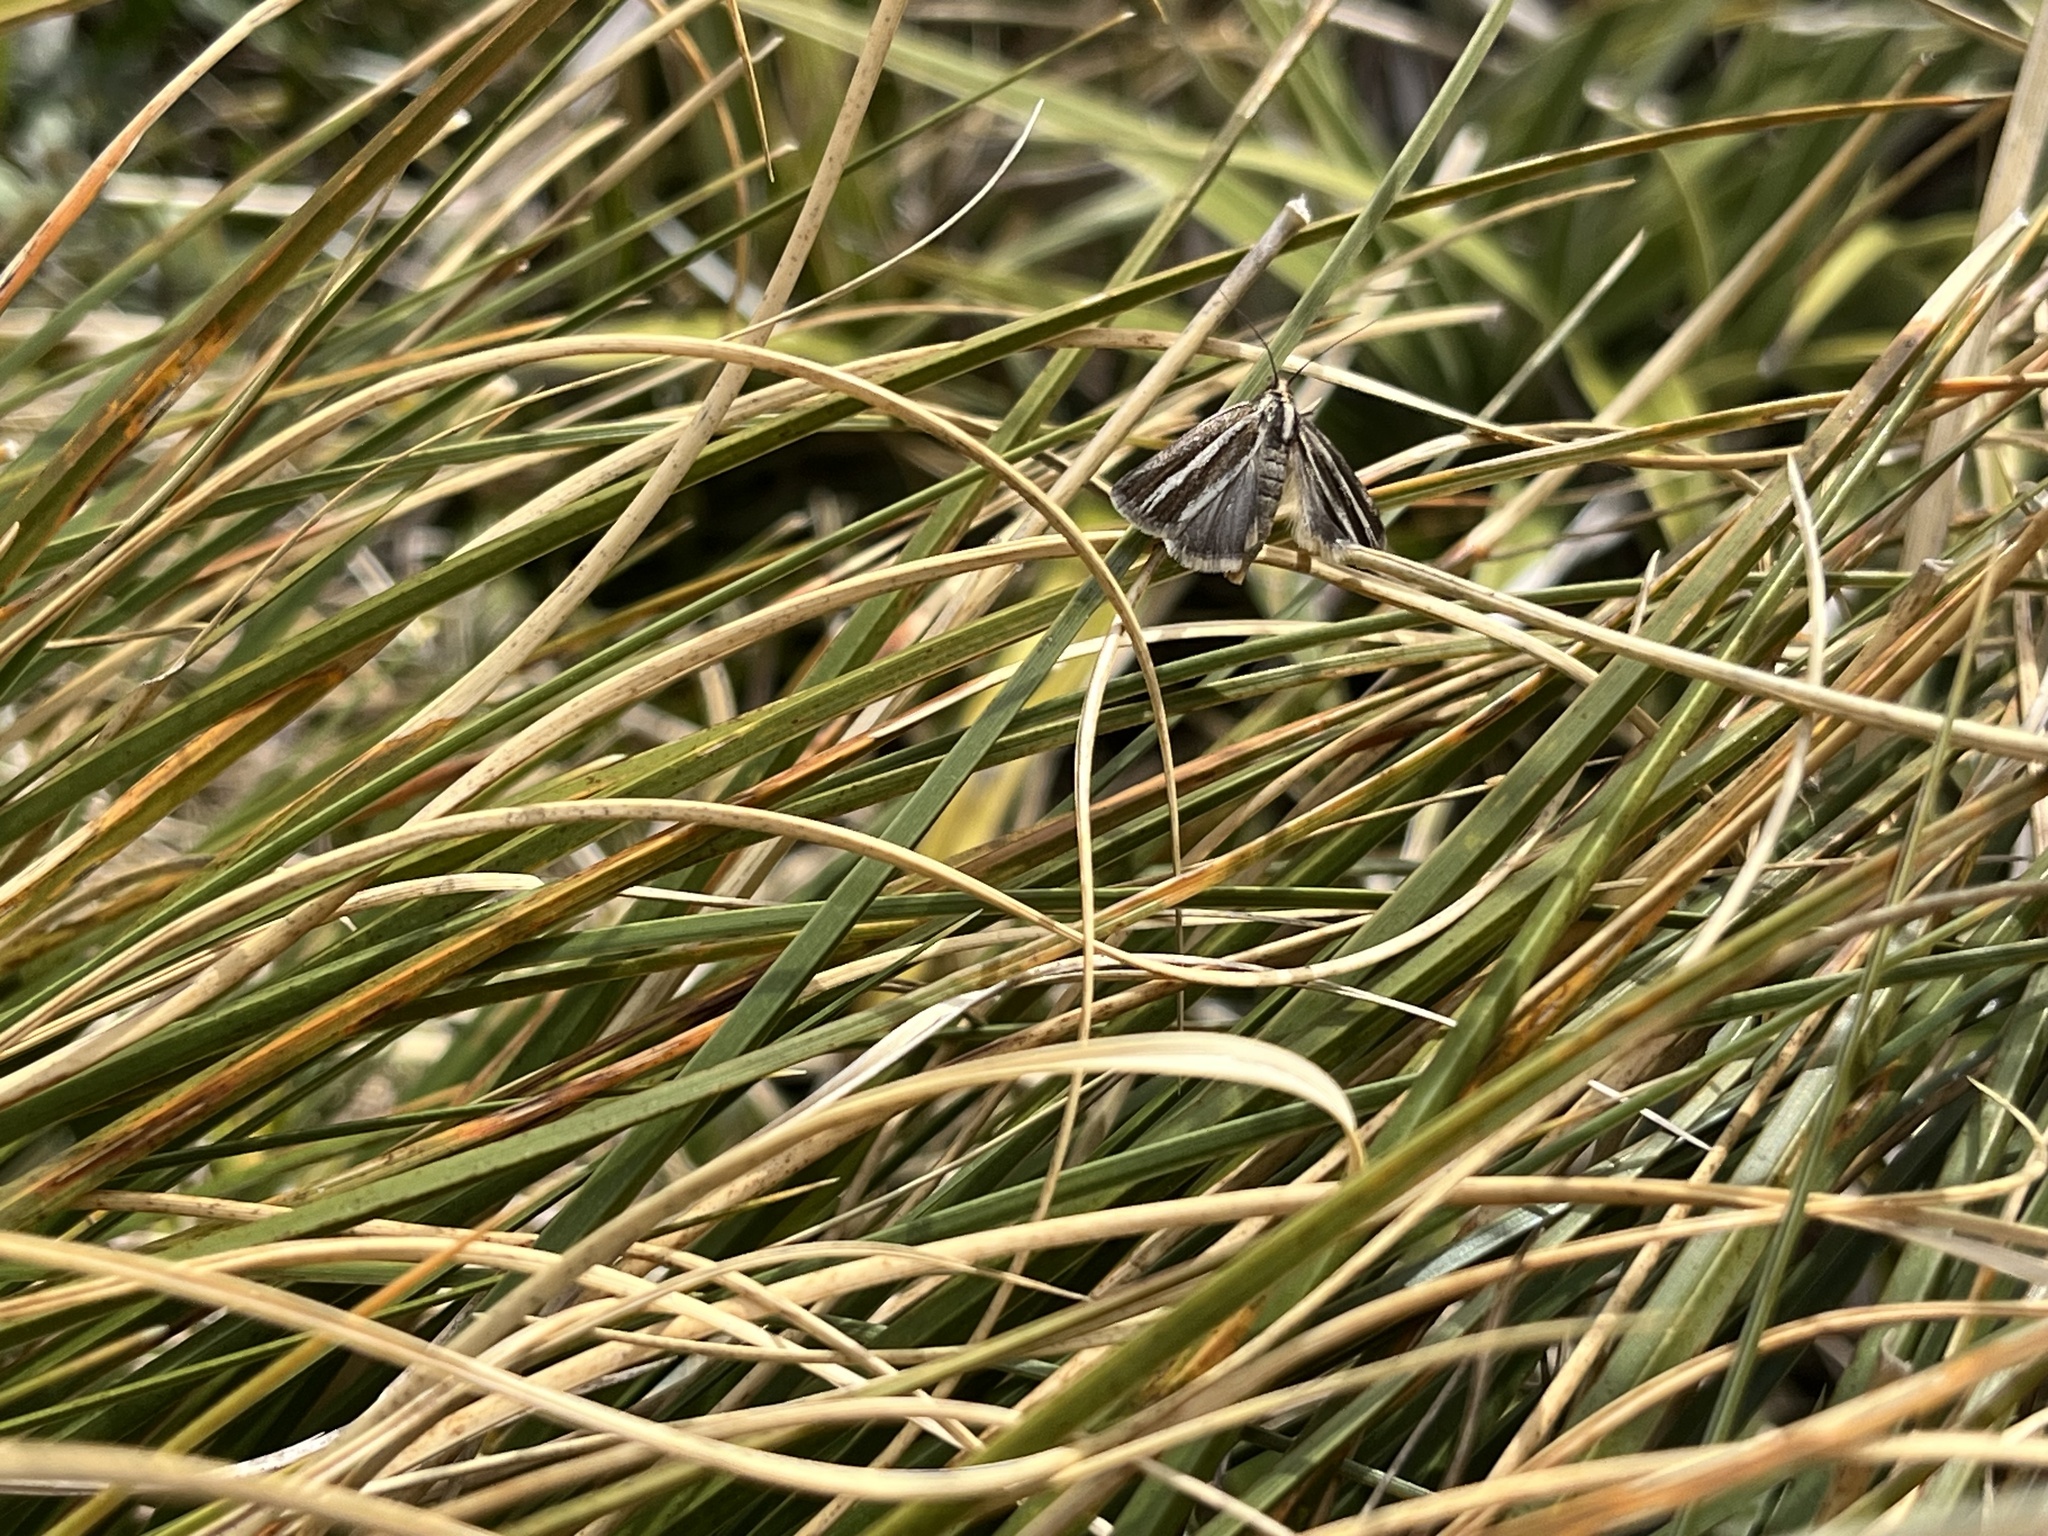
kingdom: Animalia
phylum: Arthropoda
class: Insecta
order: Lepidoptera
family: Crambidae
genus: Orocrambus
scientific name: Orocrambus tritonellus
